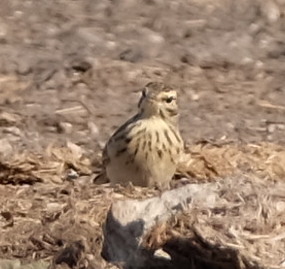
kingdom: Animalia
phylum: Chordata
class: Aves
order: Passeriformes
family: Motacillidae
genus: Anthus
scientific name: Anthus cinnamomeus
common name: African pipit
